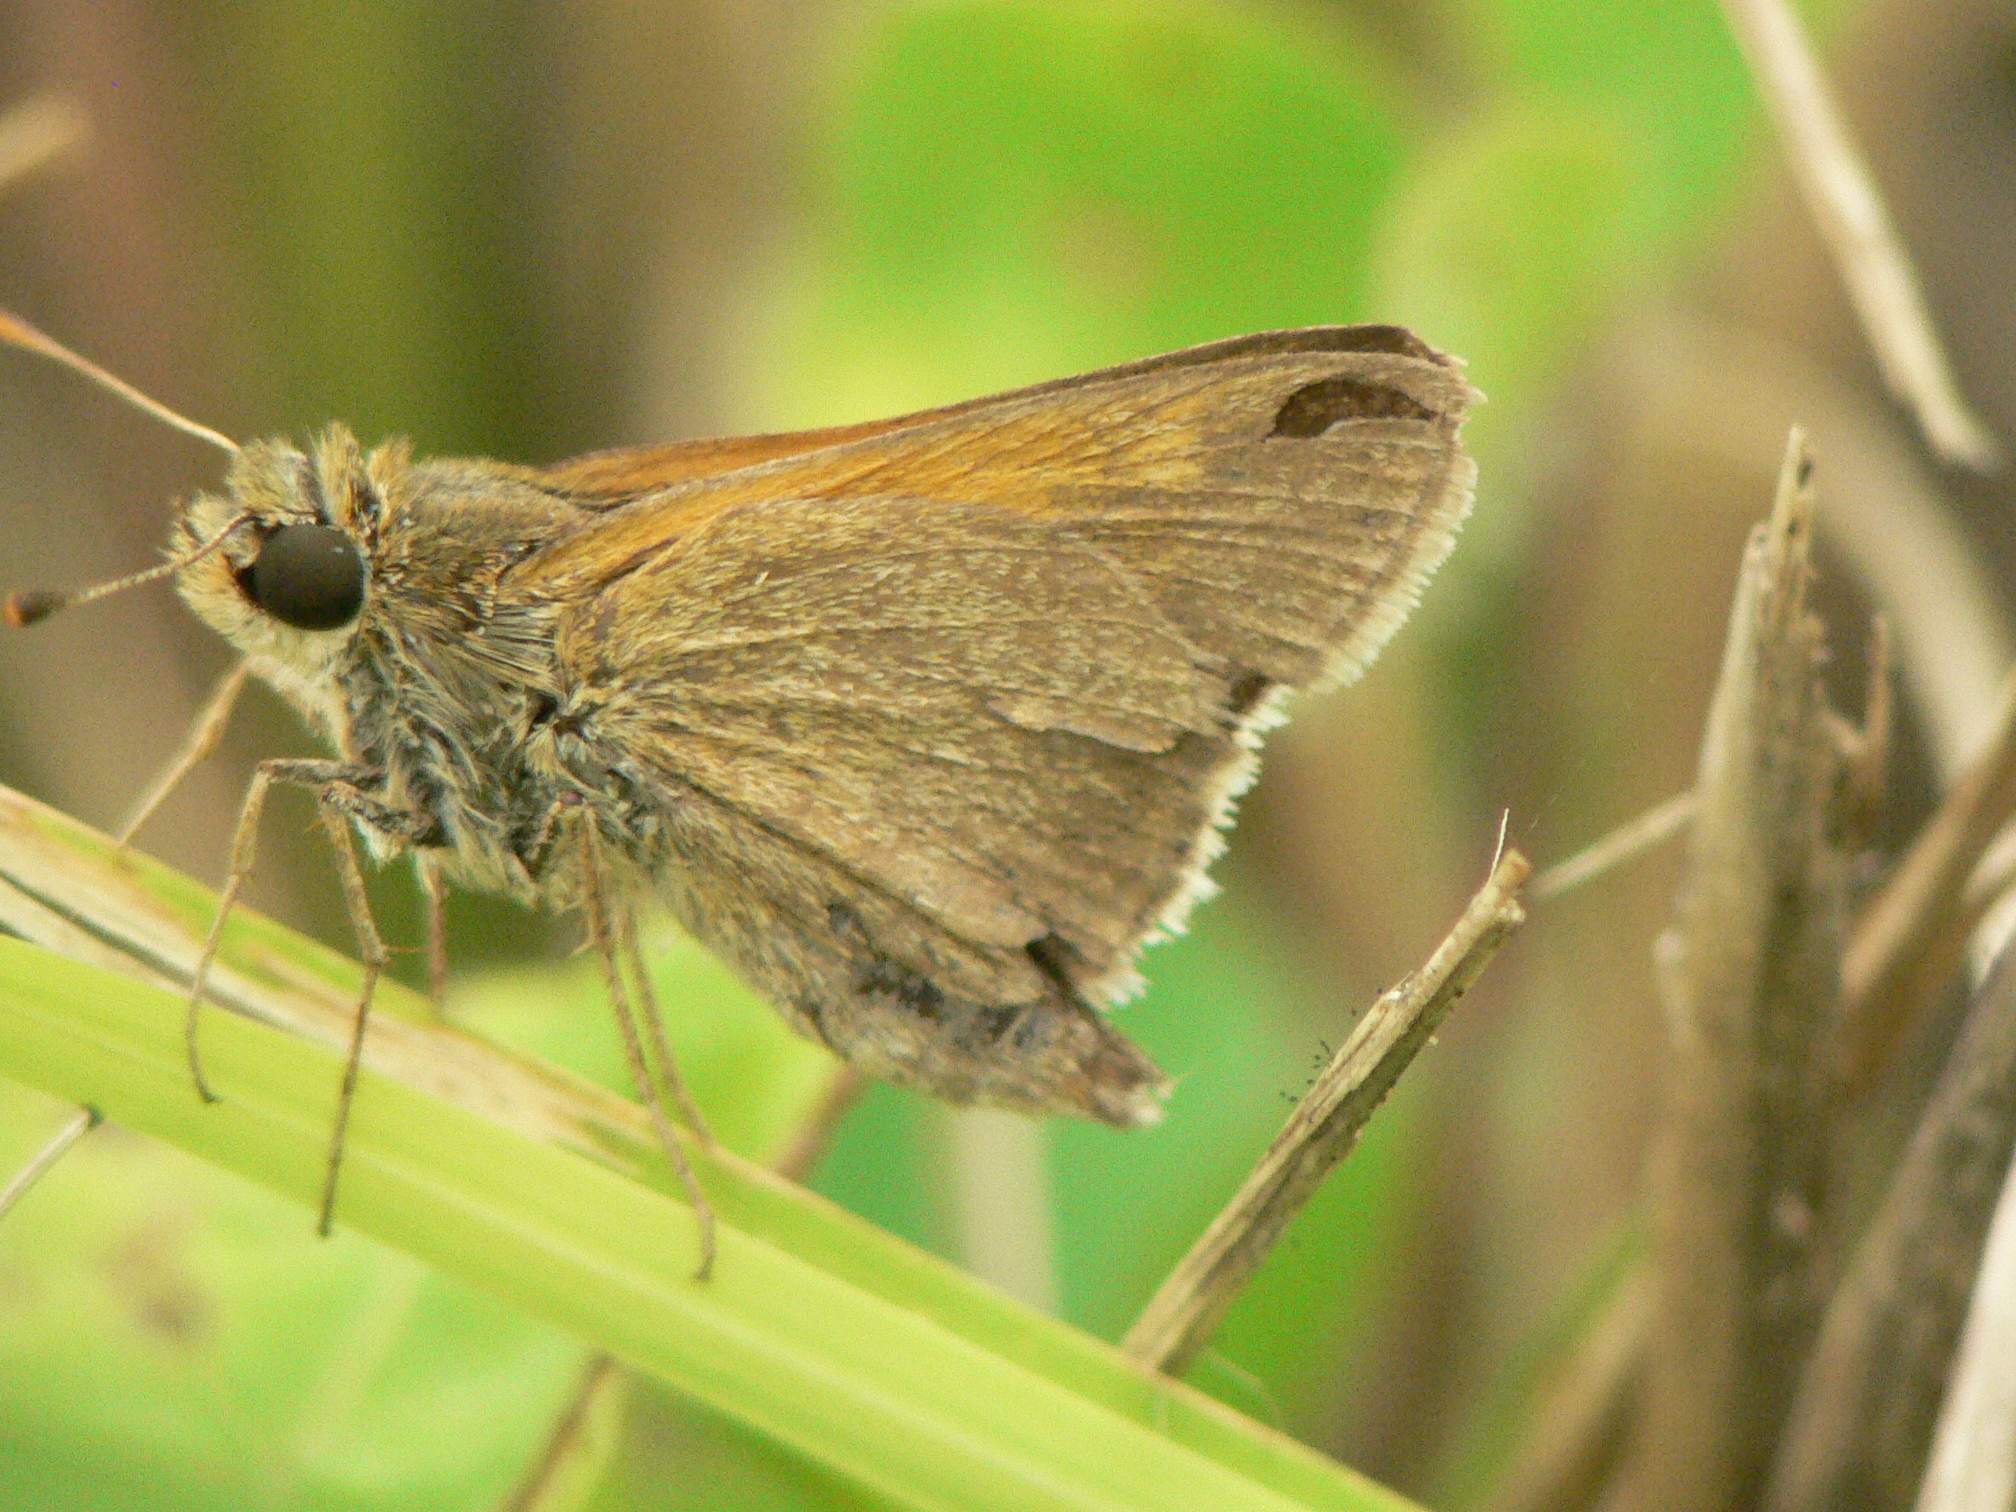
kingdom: Animalia
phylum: Arthropoda
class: Insecta
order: Lepidoptera
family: Hesperiidae
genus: Polites
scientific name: Polites themistocles
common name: Tawny-edged skipper
